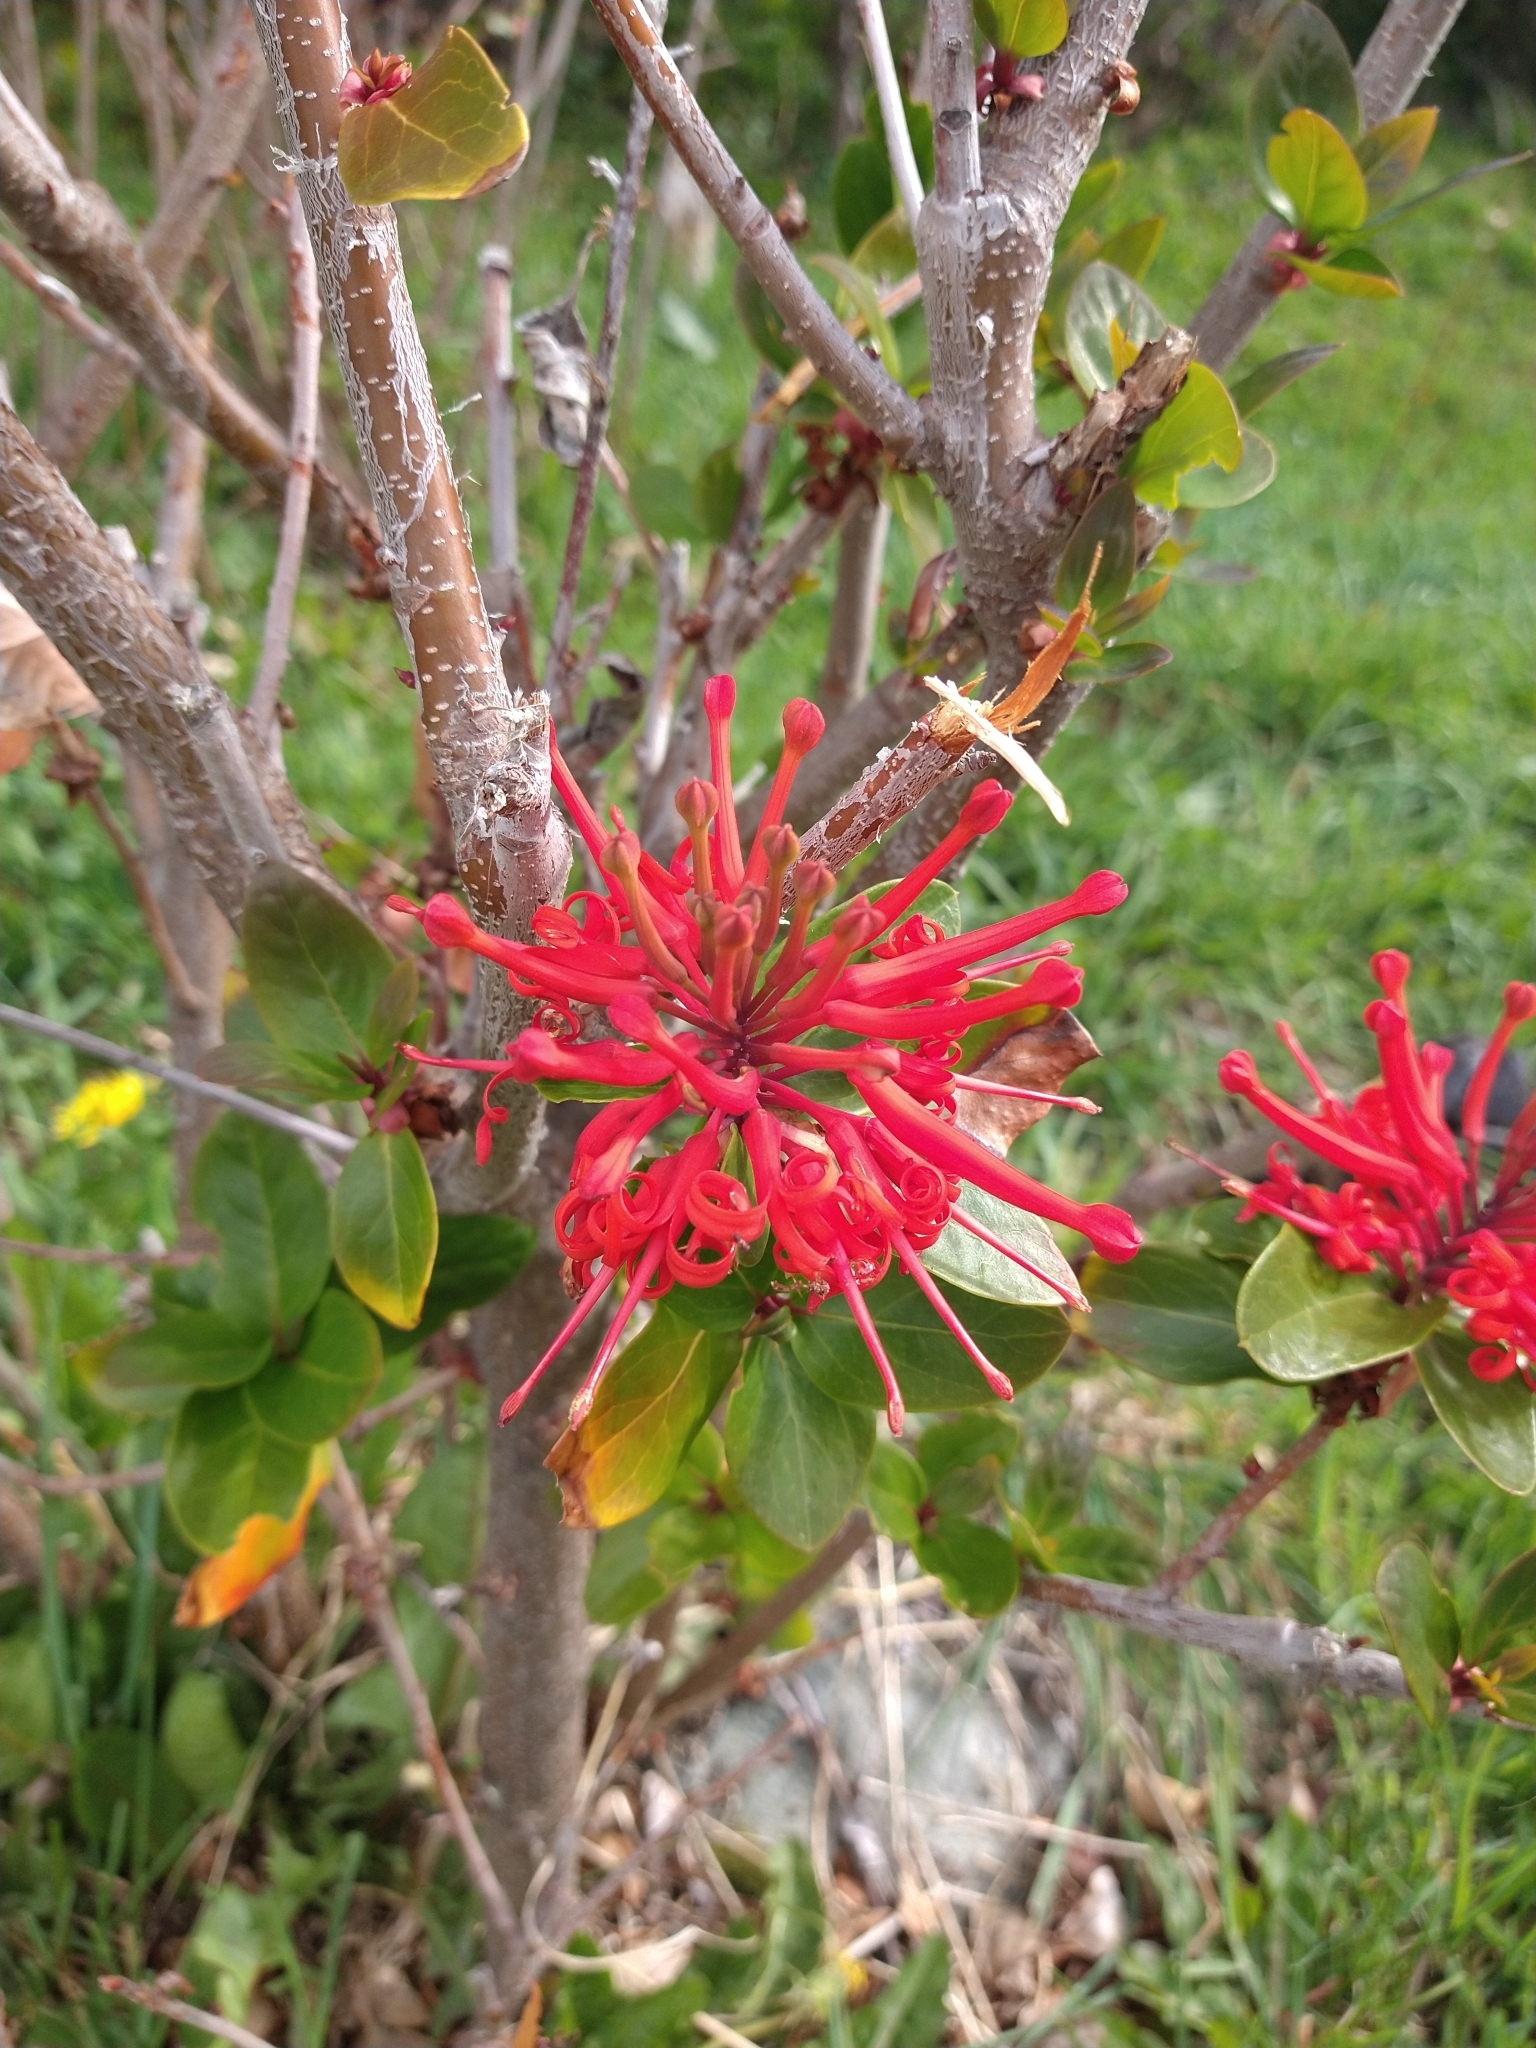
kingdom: Plantae
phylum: Tracheophyta
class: Magnoliopsida
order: Proteales
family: Proteaceae
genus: Embothrium
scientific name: Embothrium coccineum
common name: Chilean firebush
